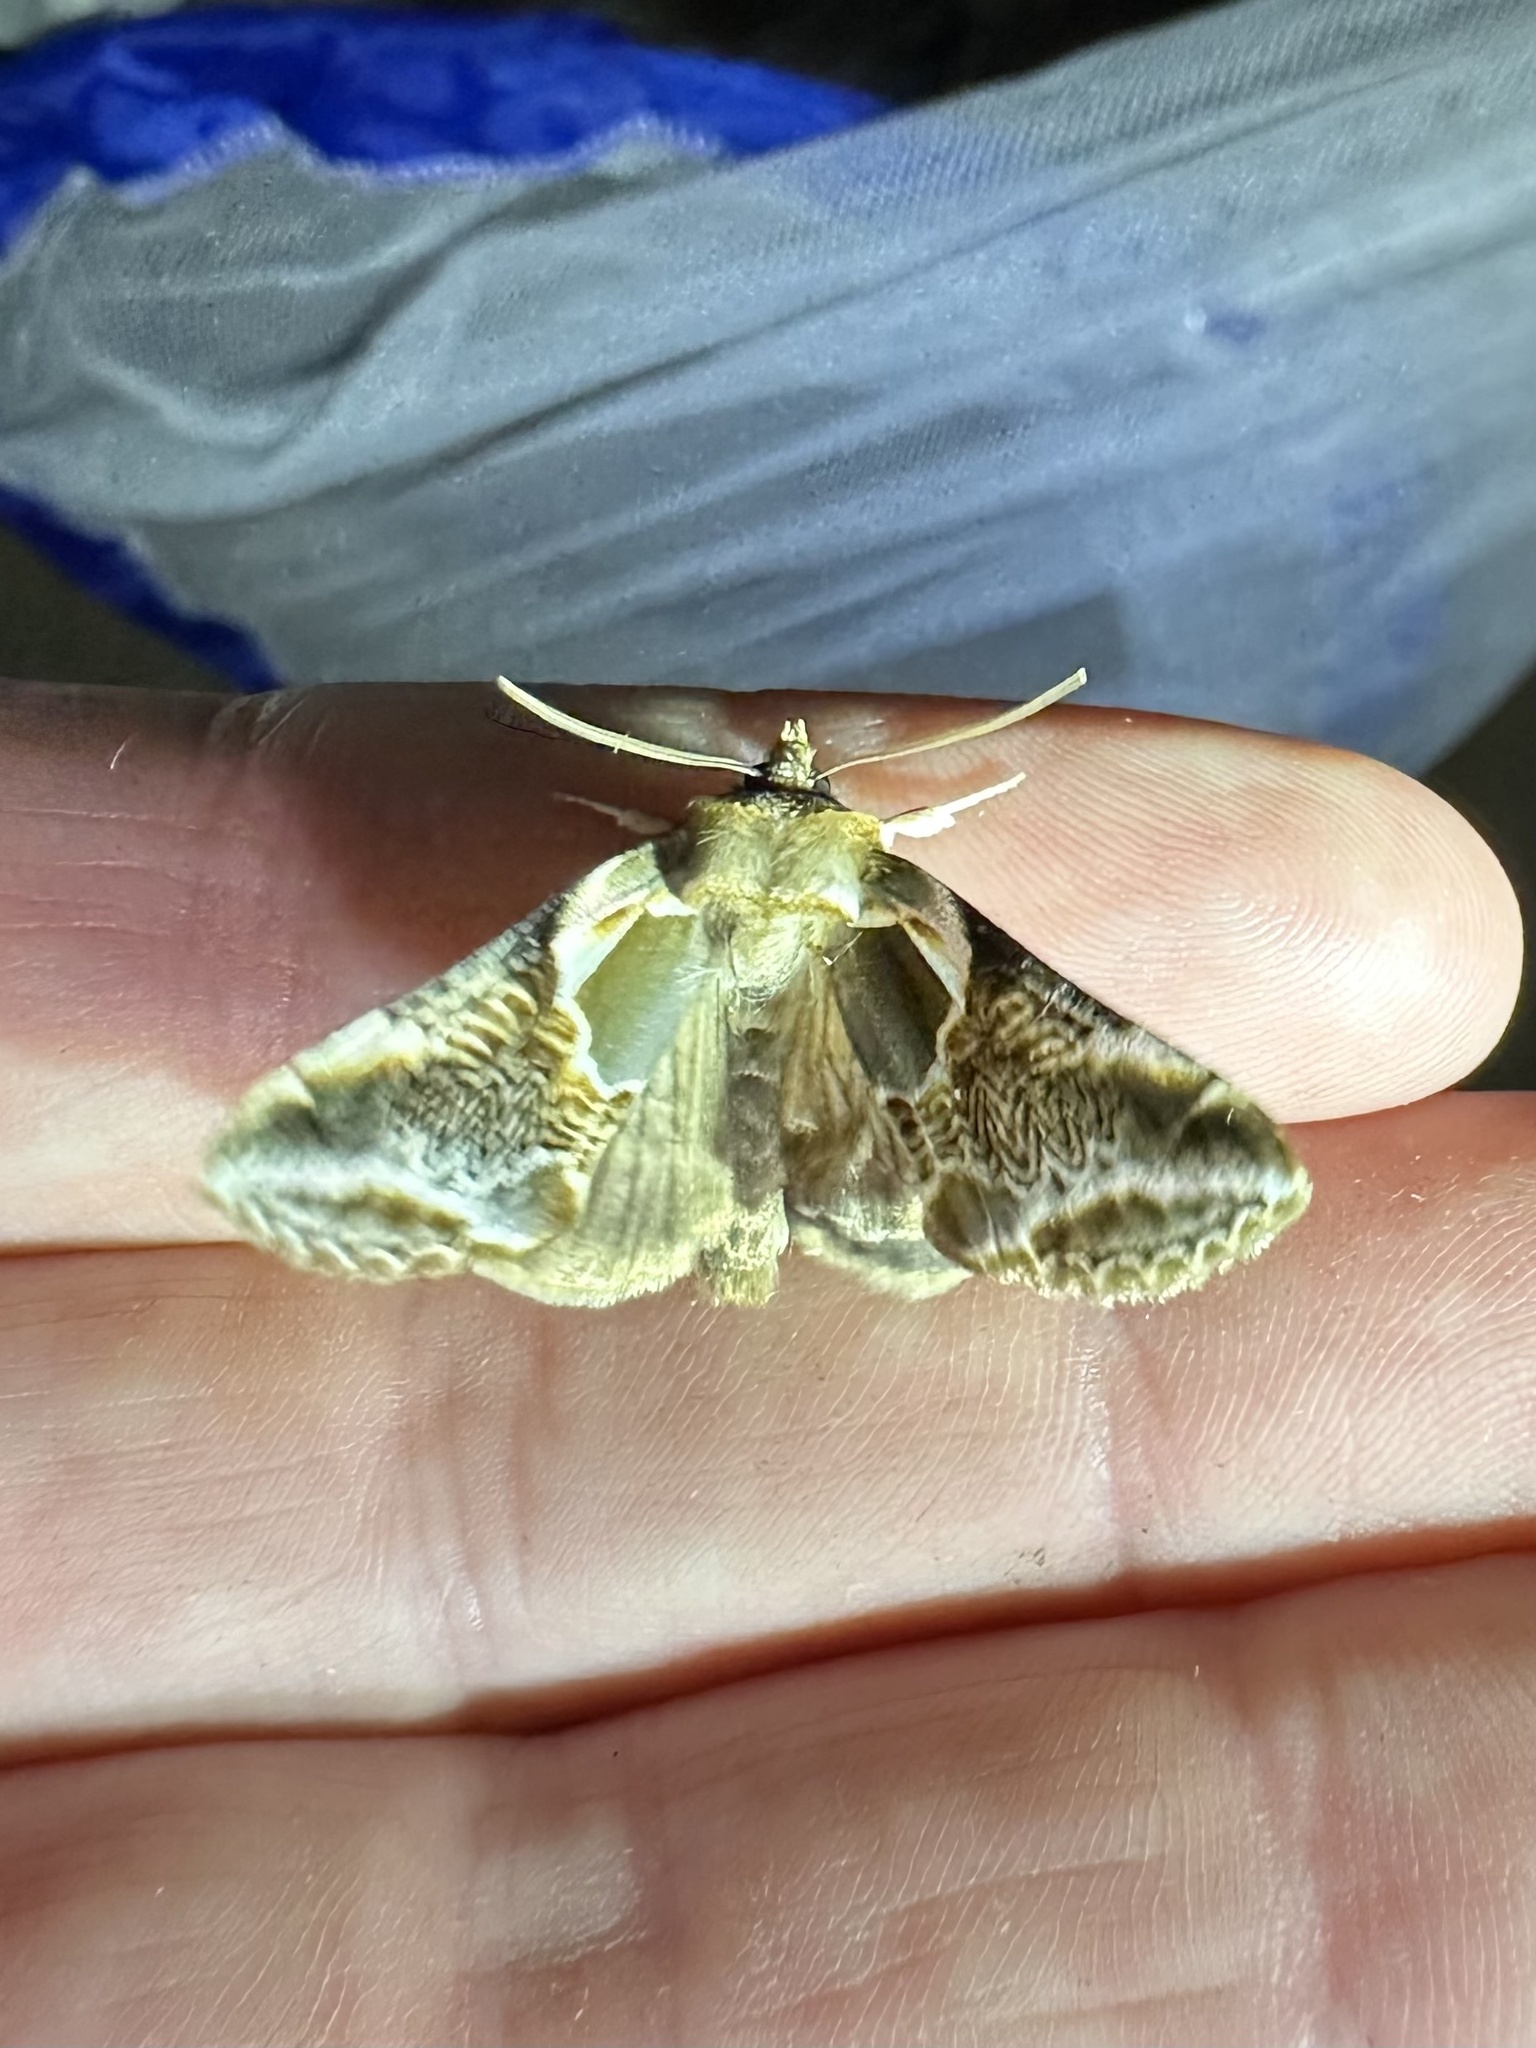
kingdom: Animalia
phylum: Arthropoda
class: Insecta
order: Lepidoptera
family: Drepanidae
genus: Habrosyne
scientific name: Habrosyne scripta
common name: Lettered habrosyne moth
